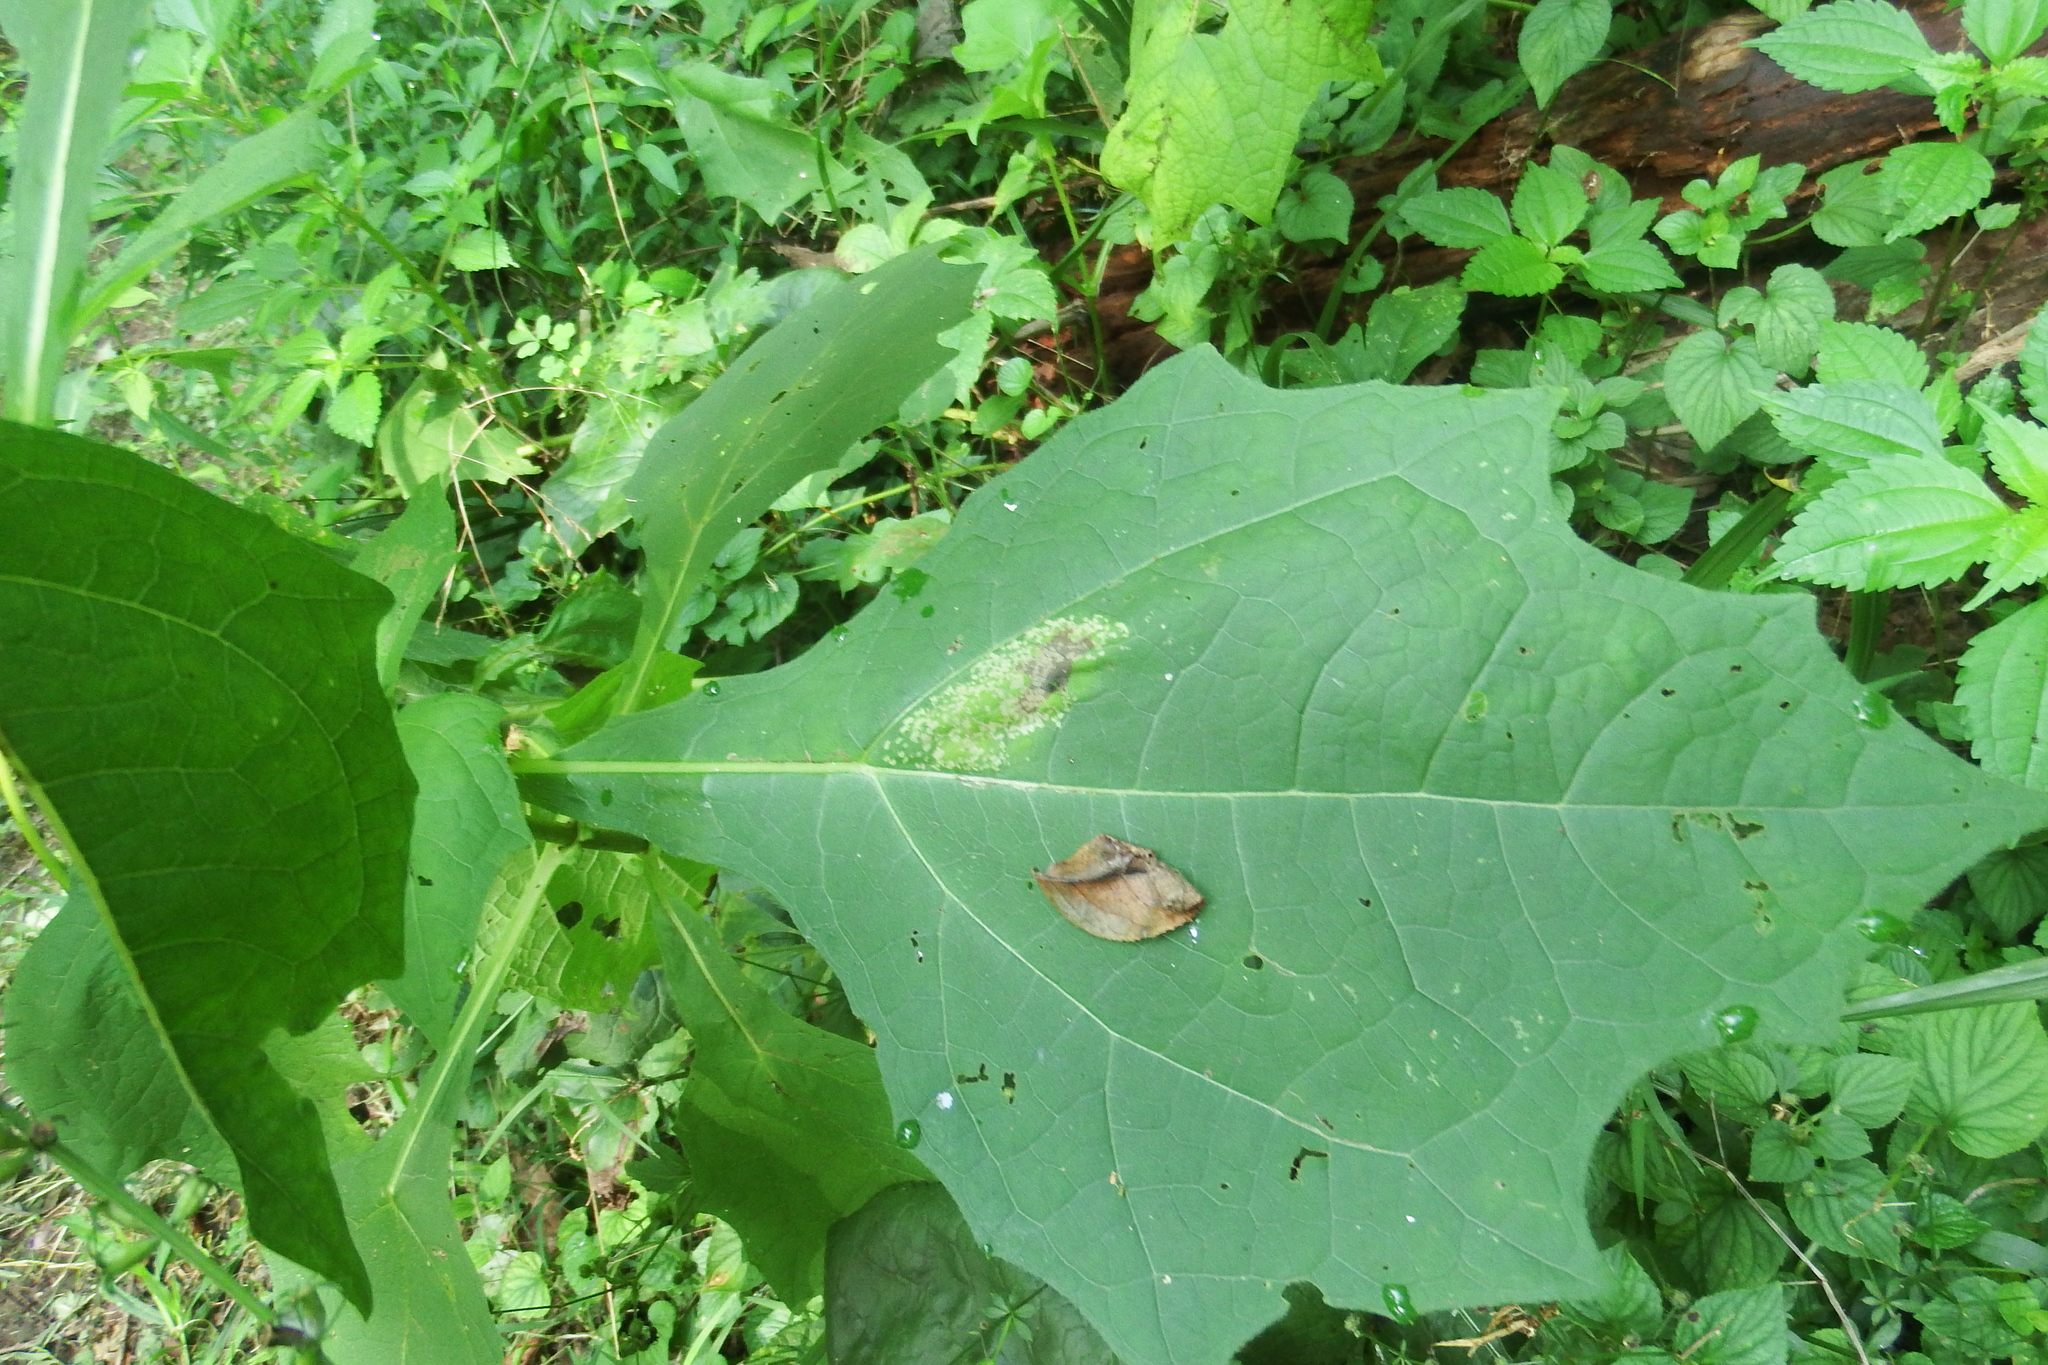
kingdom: Plantae
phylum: Tracheophyta
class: Magnoliopsida
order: Asterales
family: Asteraceae
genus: Smallanthus
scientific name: Smallanthus uvedalia
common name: Bear's-foot
